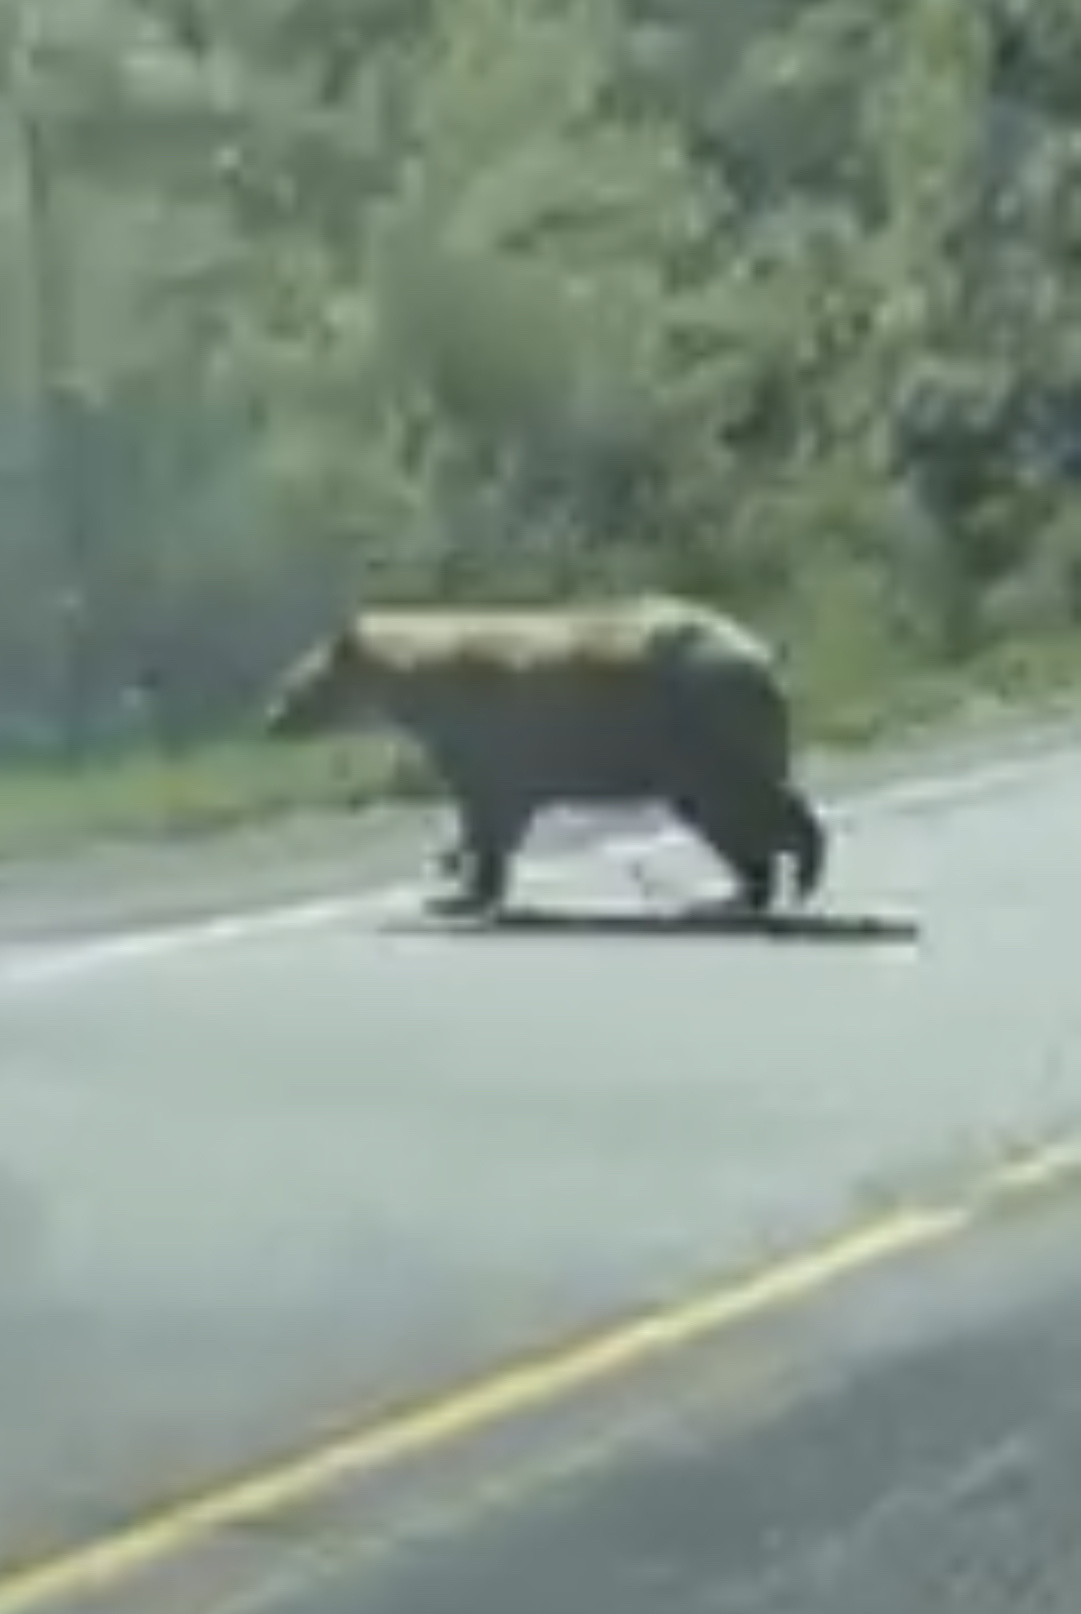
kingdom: Animalia
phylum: Chordata
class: Mammalia
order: Carnivora
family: Ursidae
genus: Ursus
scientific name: Ursus americanus
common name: American black bear
